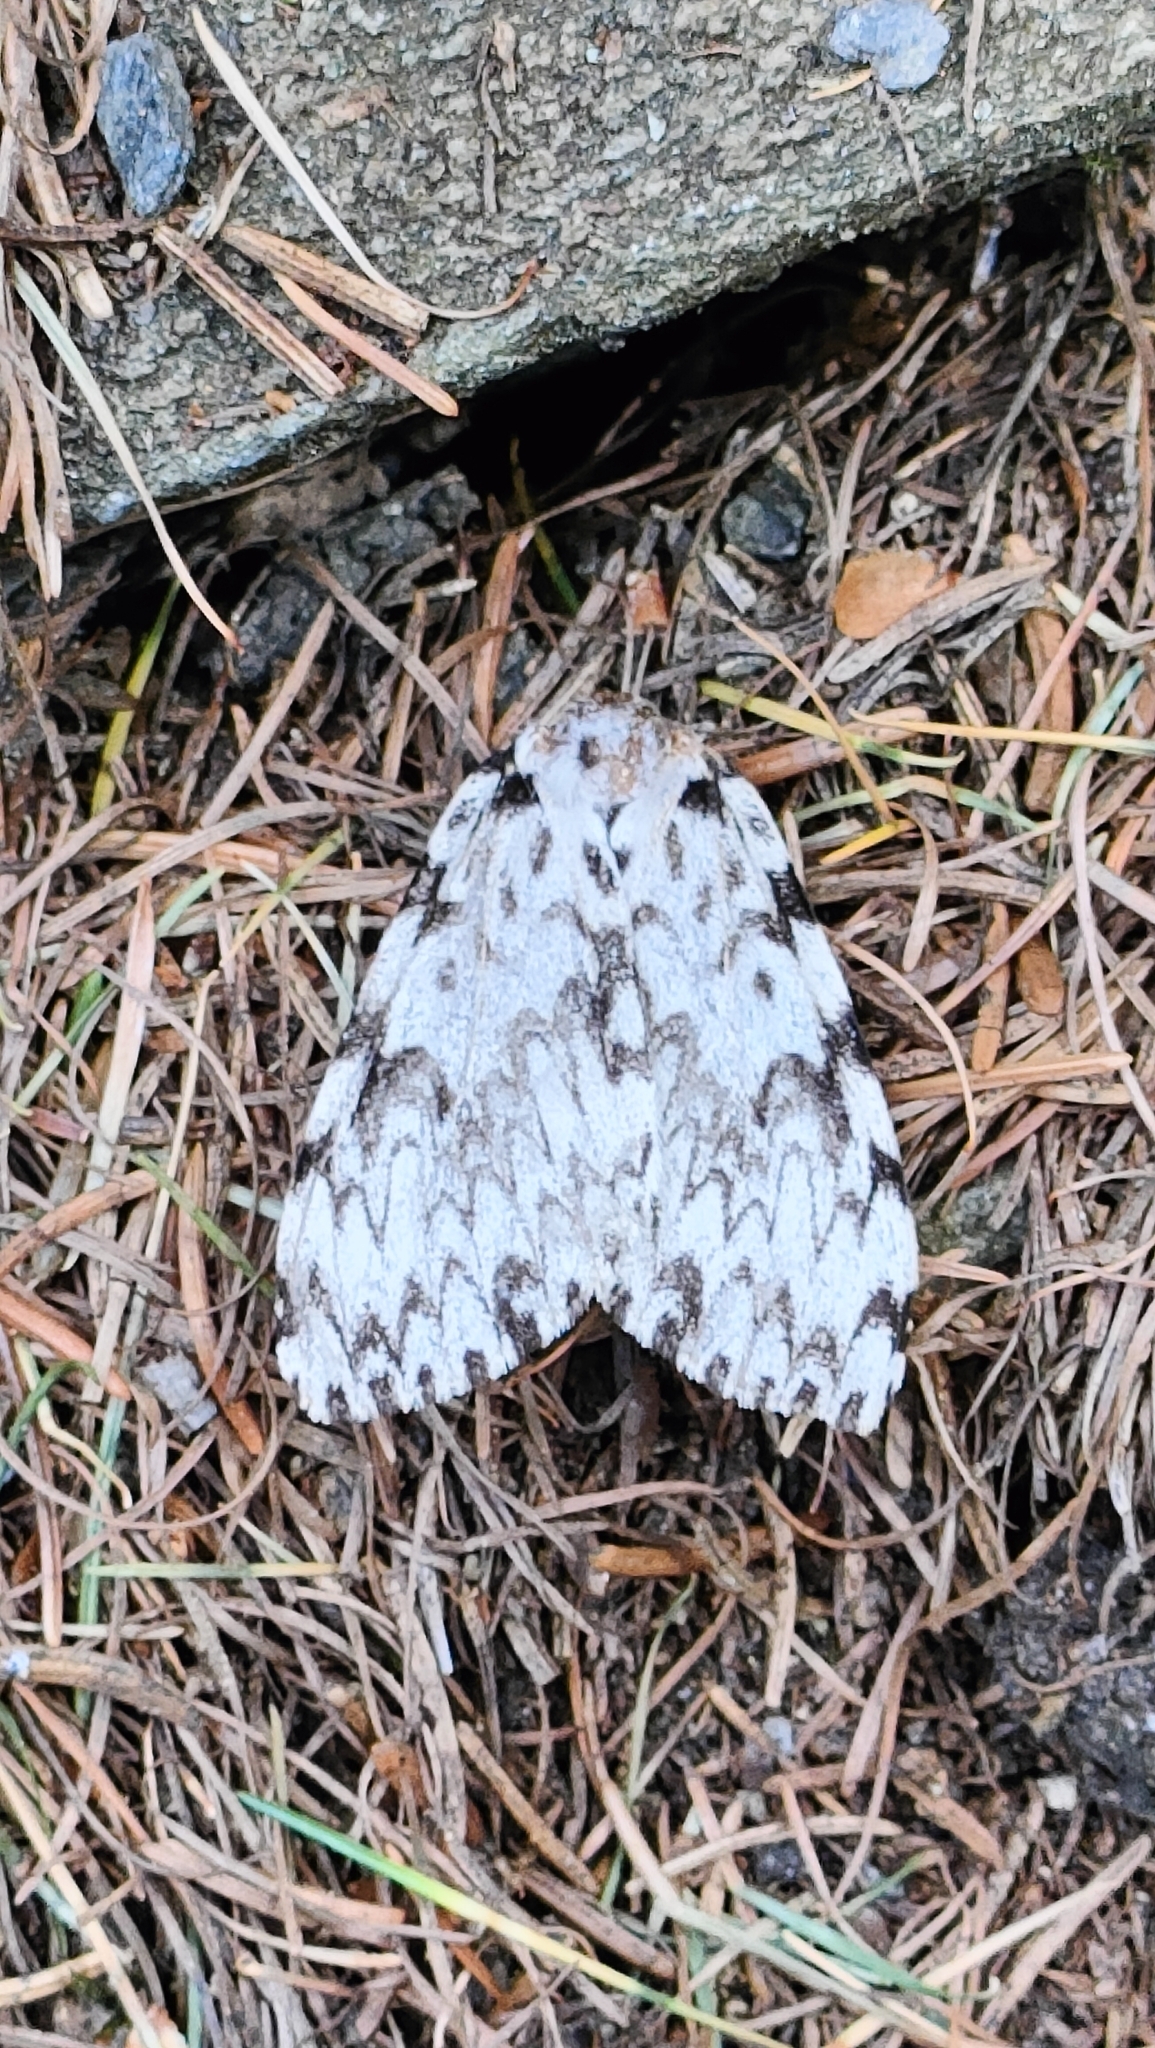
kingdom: Animalia
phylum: Arthropoda
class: Insecta
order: Lepidoptera
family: Erebidae
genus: Lymantria
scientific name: Lymantria monacha
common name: Black arches
